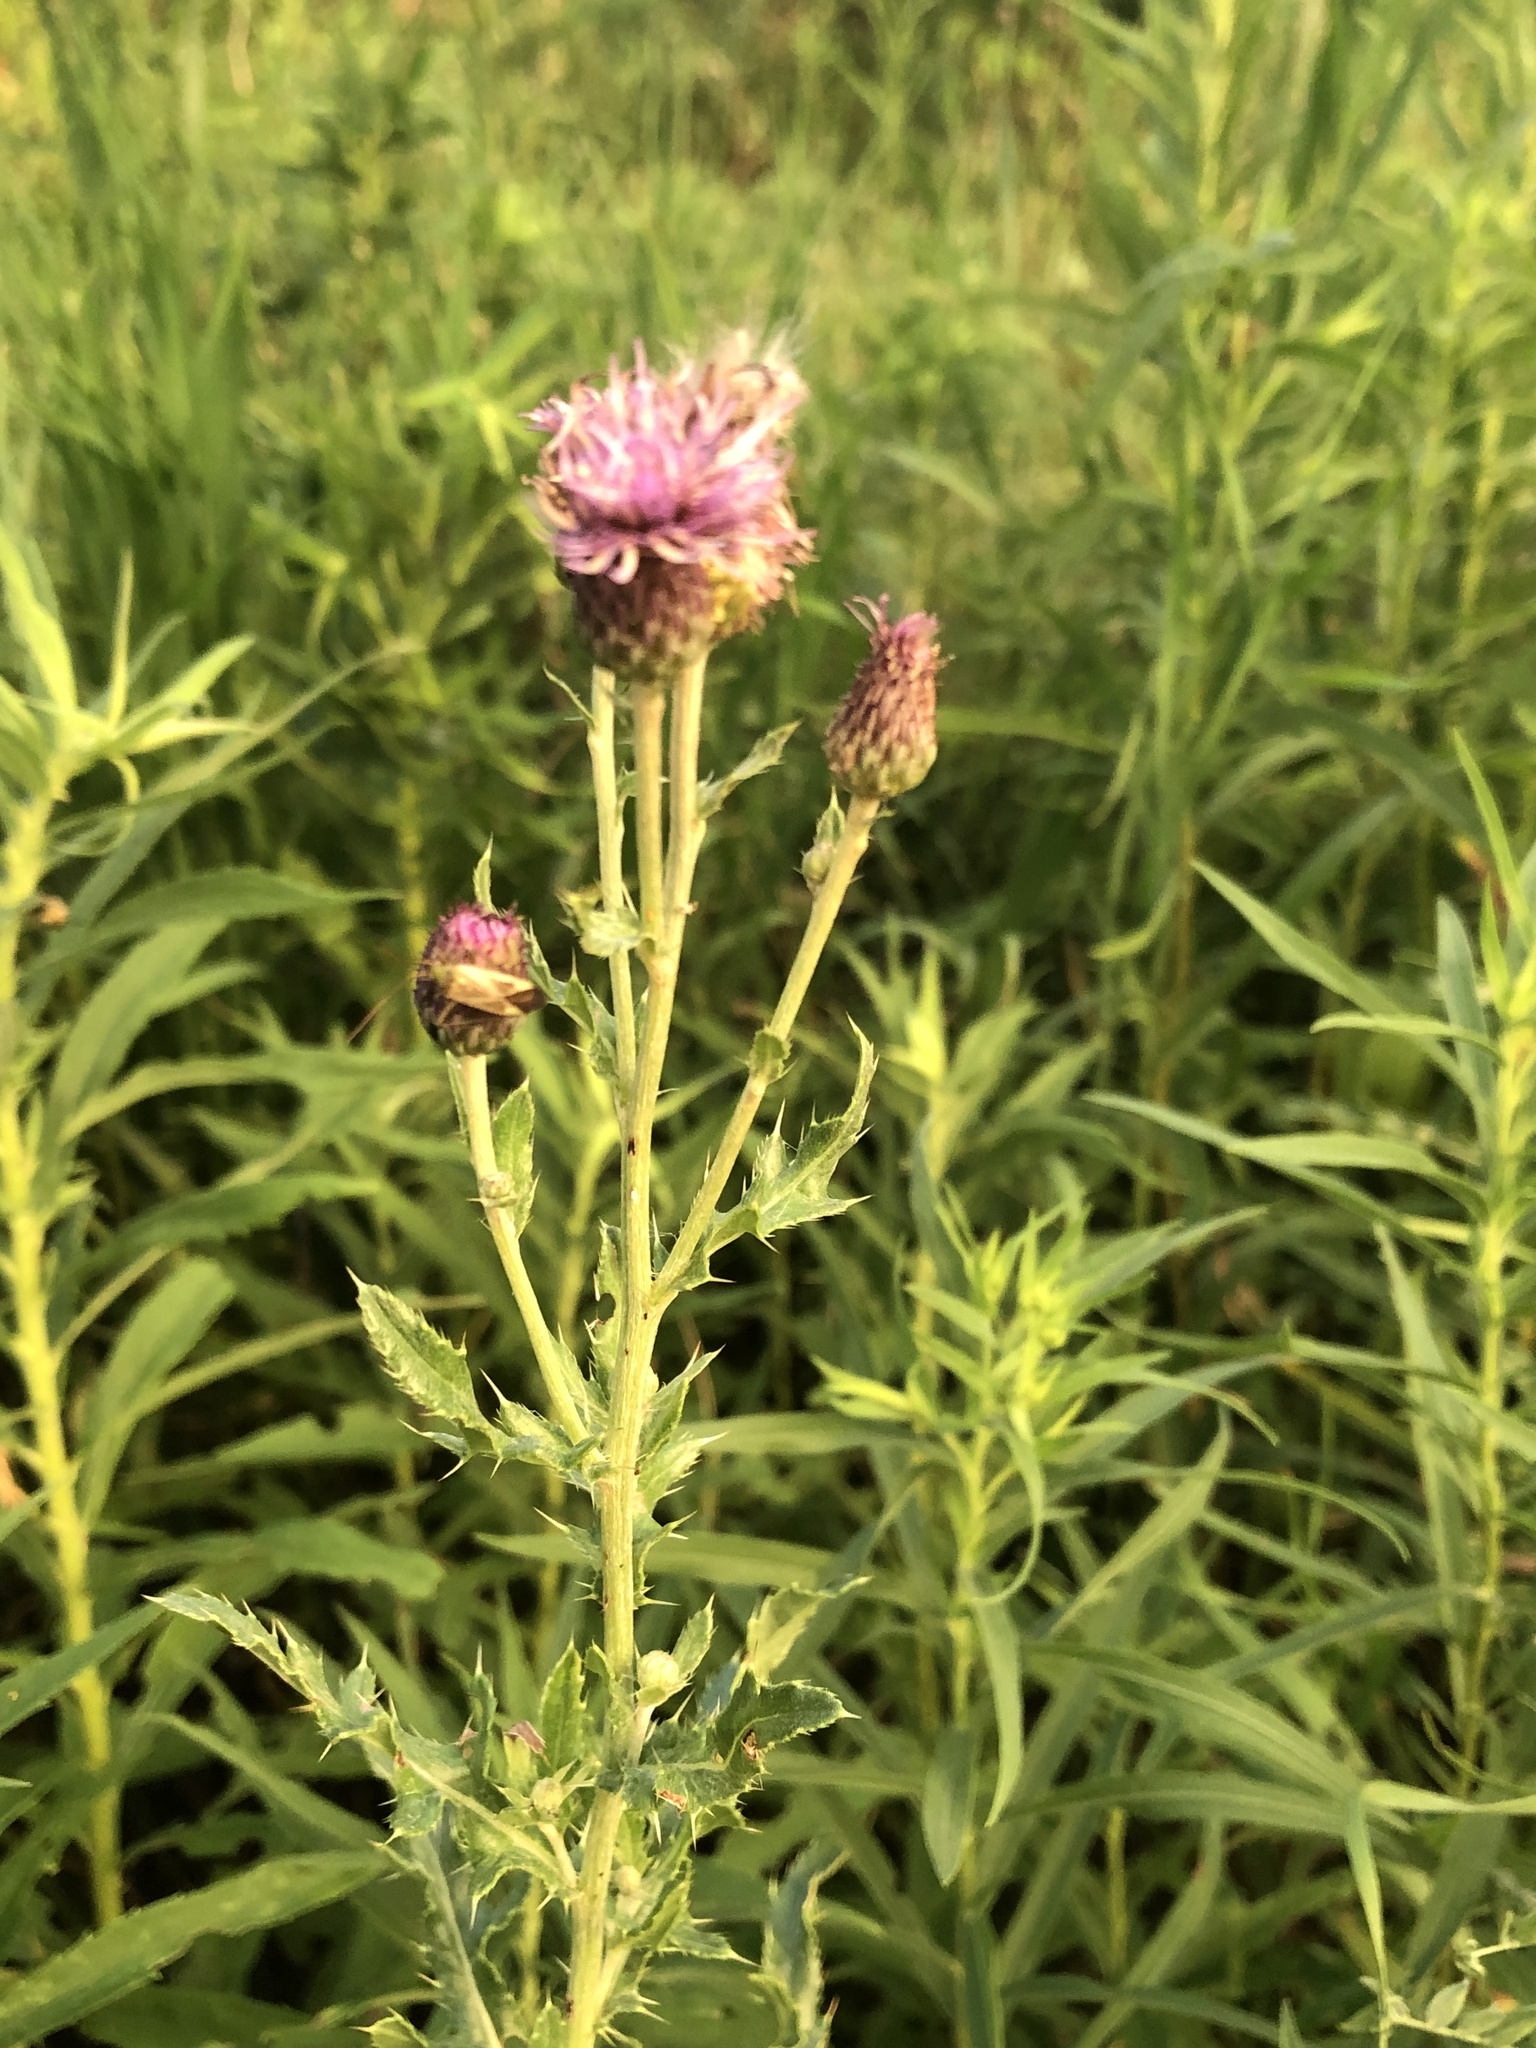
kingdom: Plantae
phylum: Tracheophyta
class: Magnoliopsida
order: Asterales
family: Asteraceae
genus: Cirsium
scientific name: Cirsium arvense
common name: Creeping thistle
